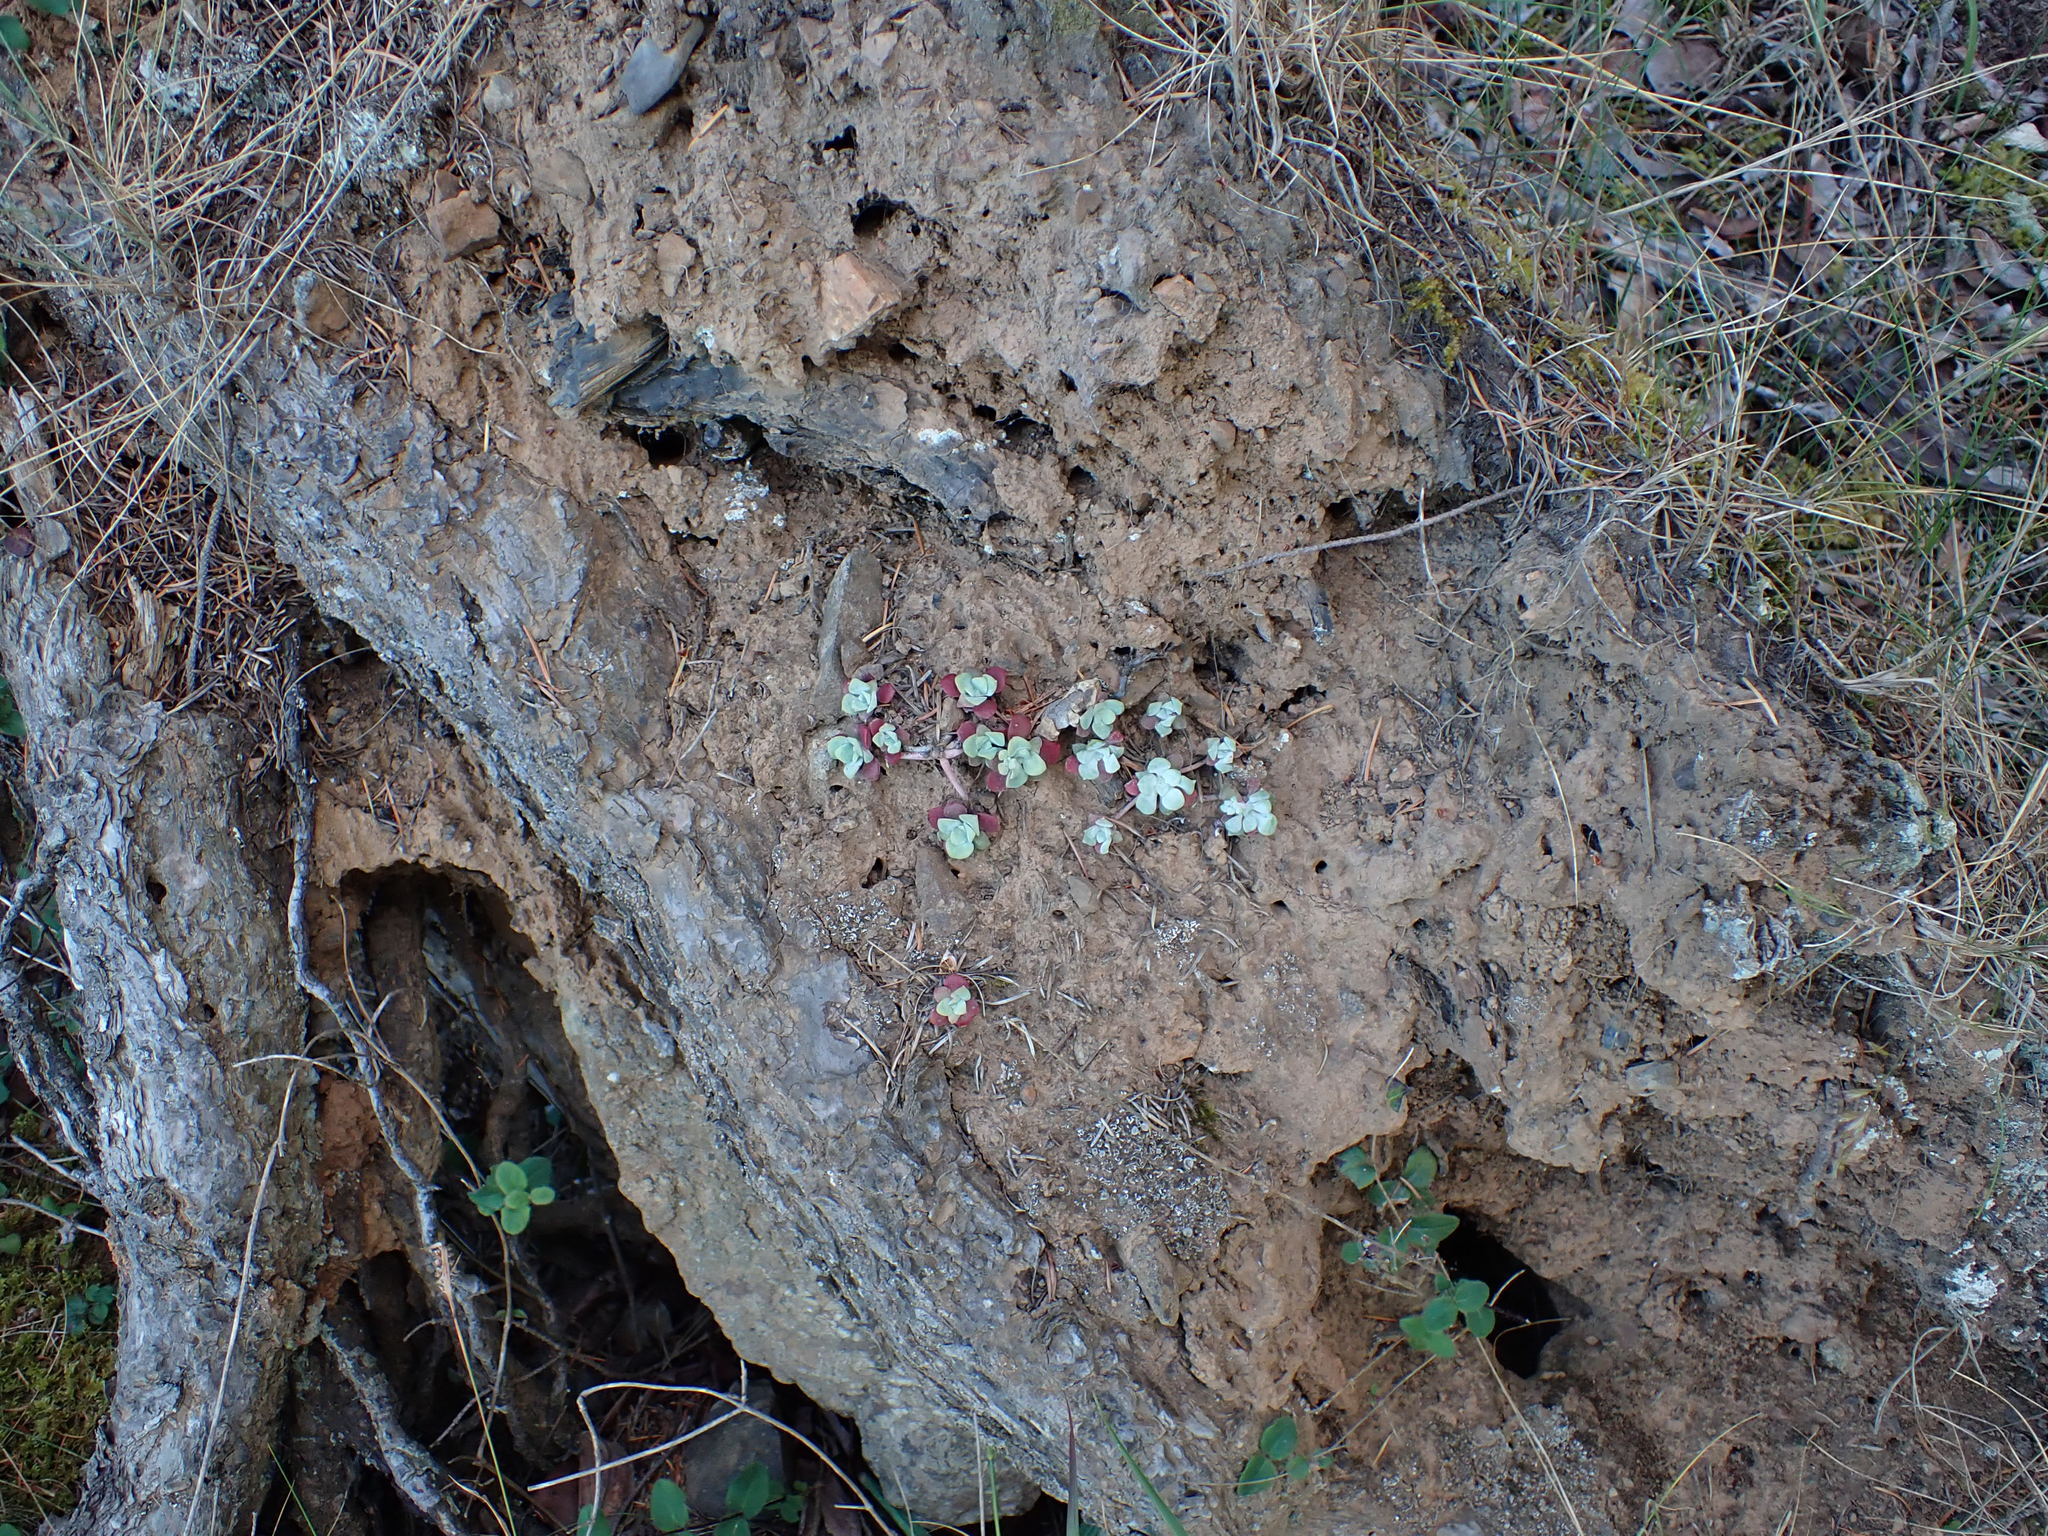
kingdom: Plantae
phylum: Tracheophyta
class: Magnoliopsida
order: Saxifragales
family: Crassulaceae
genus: Sedum
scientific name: Sedum spathulifolium
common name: Colorado stonecrop
